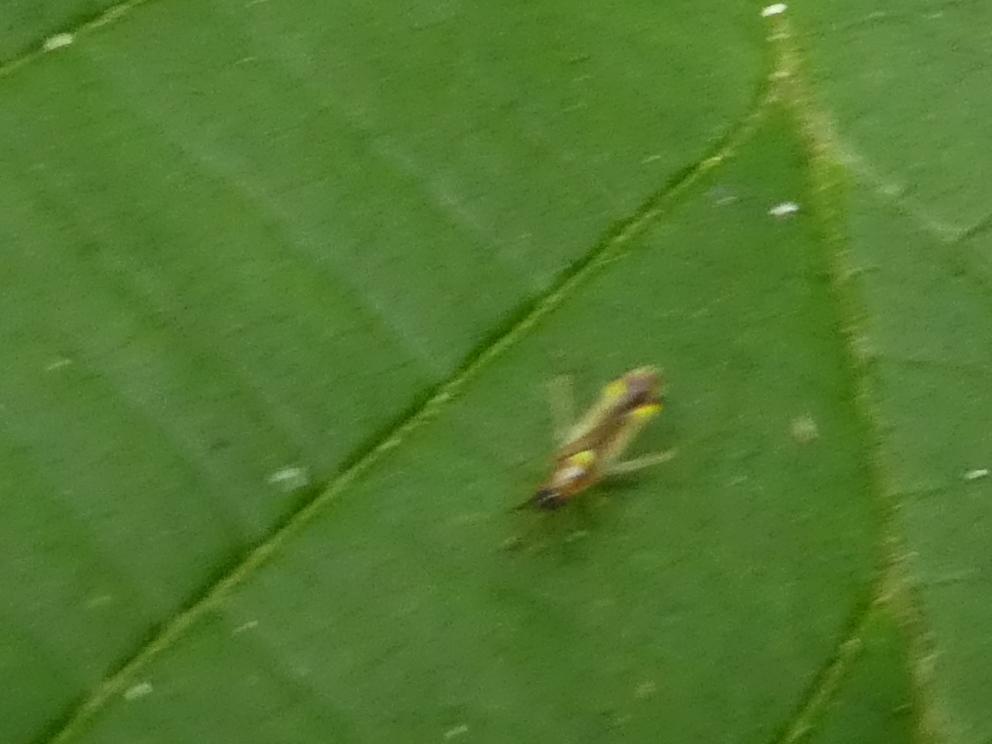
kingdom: Animalia
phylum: Arthropoda
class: Insecta
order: Hemiptera
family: Miridae
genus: Campyloneura
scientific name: Campyloneura virgula
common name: Predatory bug
